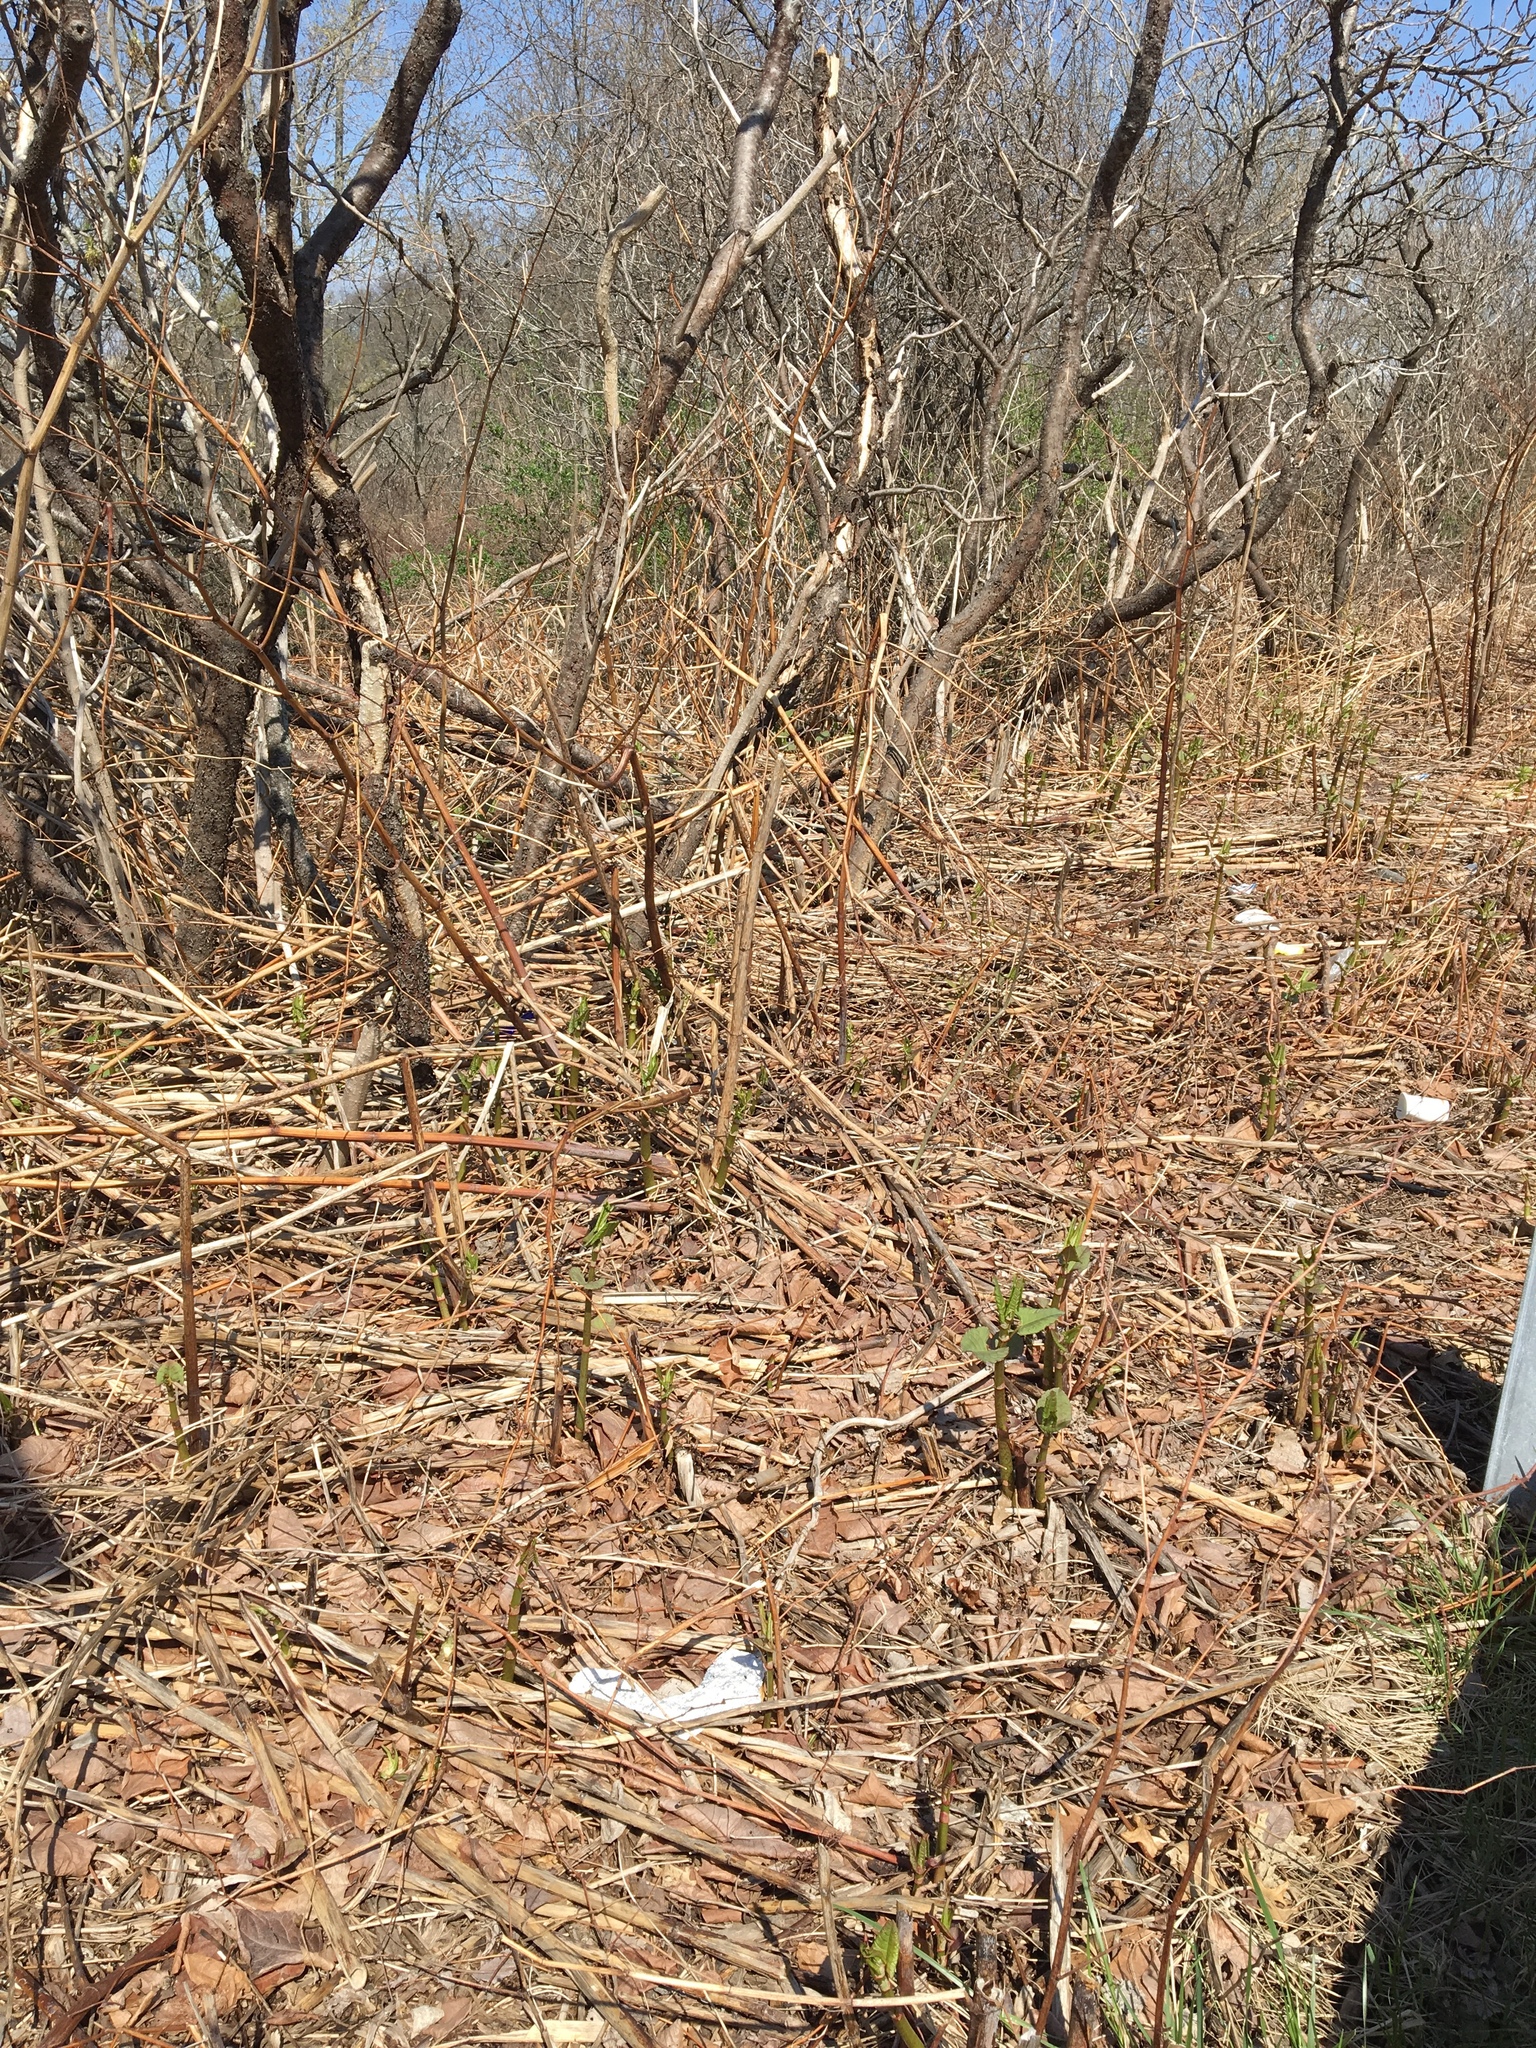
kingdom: Plantae
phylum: Tracheophyta
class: Magnoliopsida
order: Caryophyllales
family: Polygonaceae
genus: Reynoutria
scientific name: Reynoutria japonica
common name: Japanese knotweed
